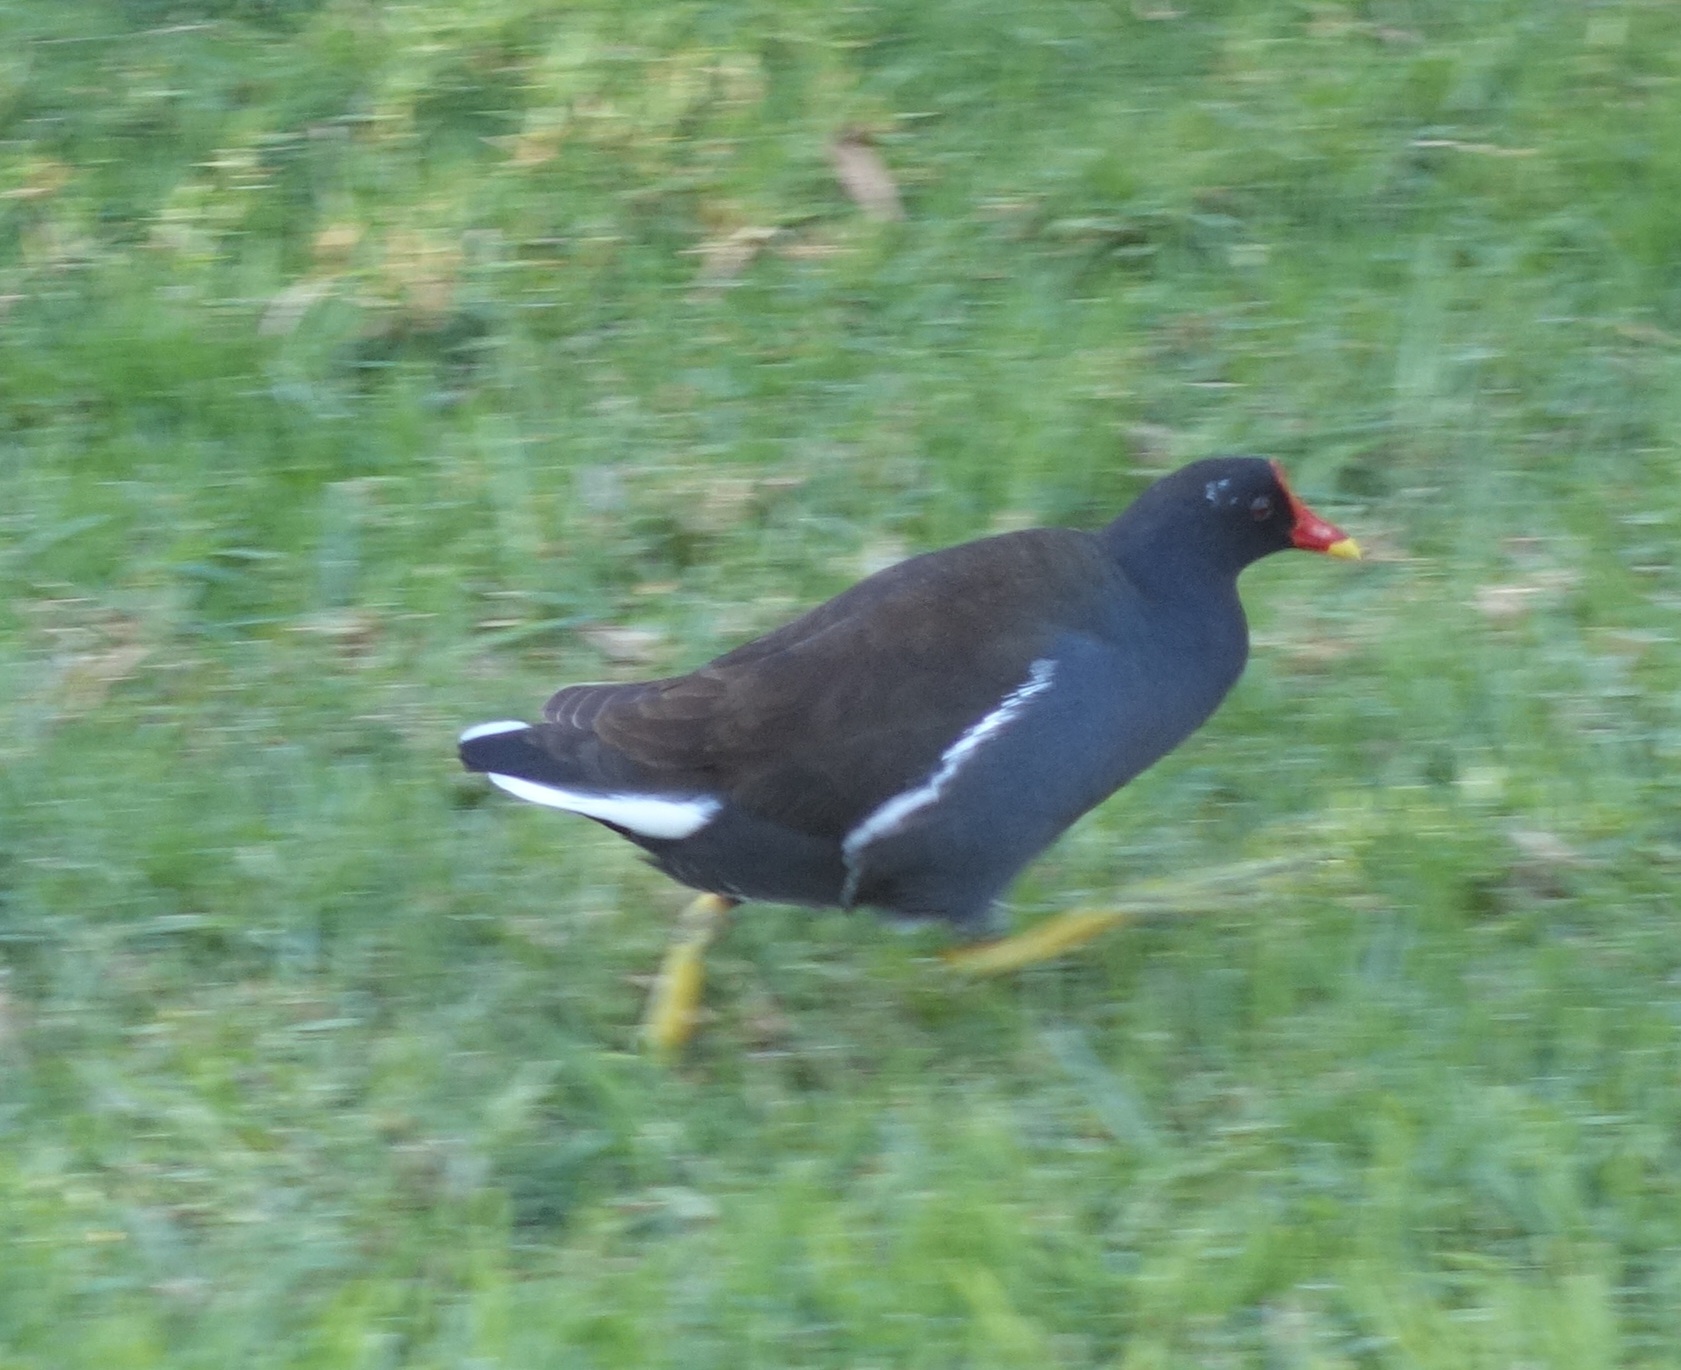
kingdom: Animalia
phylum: Chordata
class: Aves
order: Gruiformes
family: Rallidae
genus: Gallinula
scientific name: Gallinula chloropus
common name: Common moorhen
